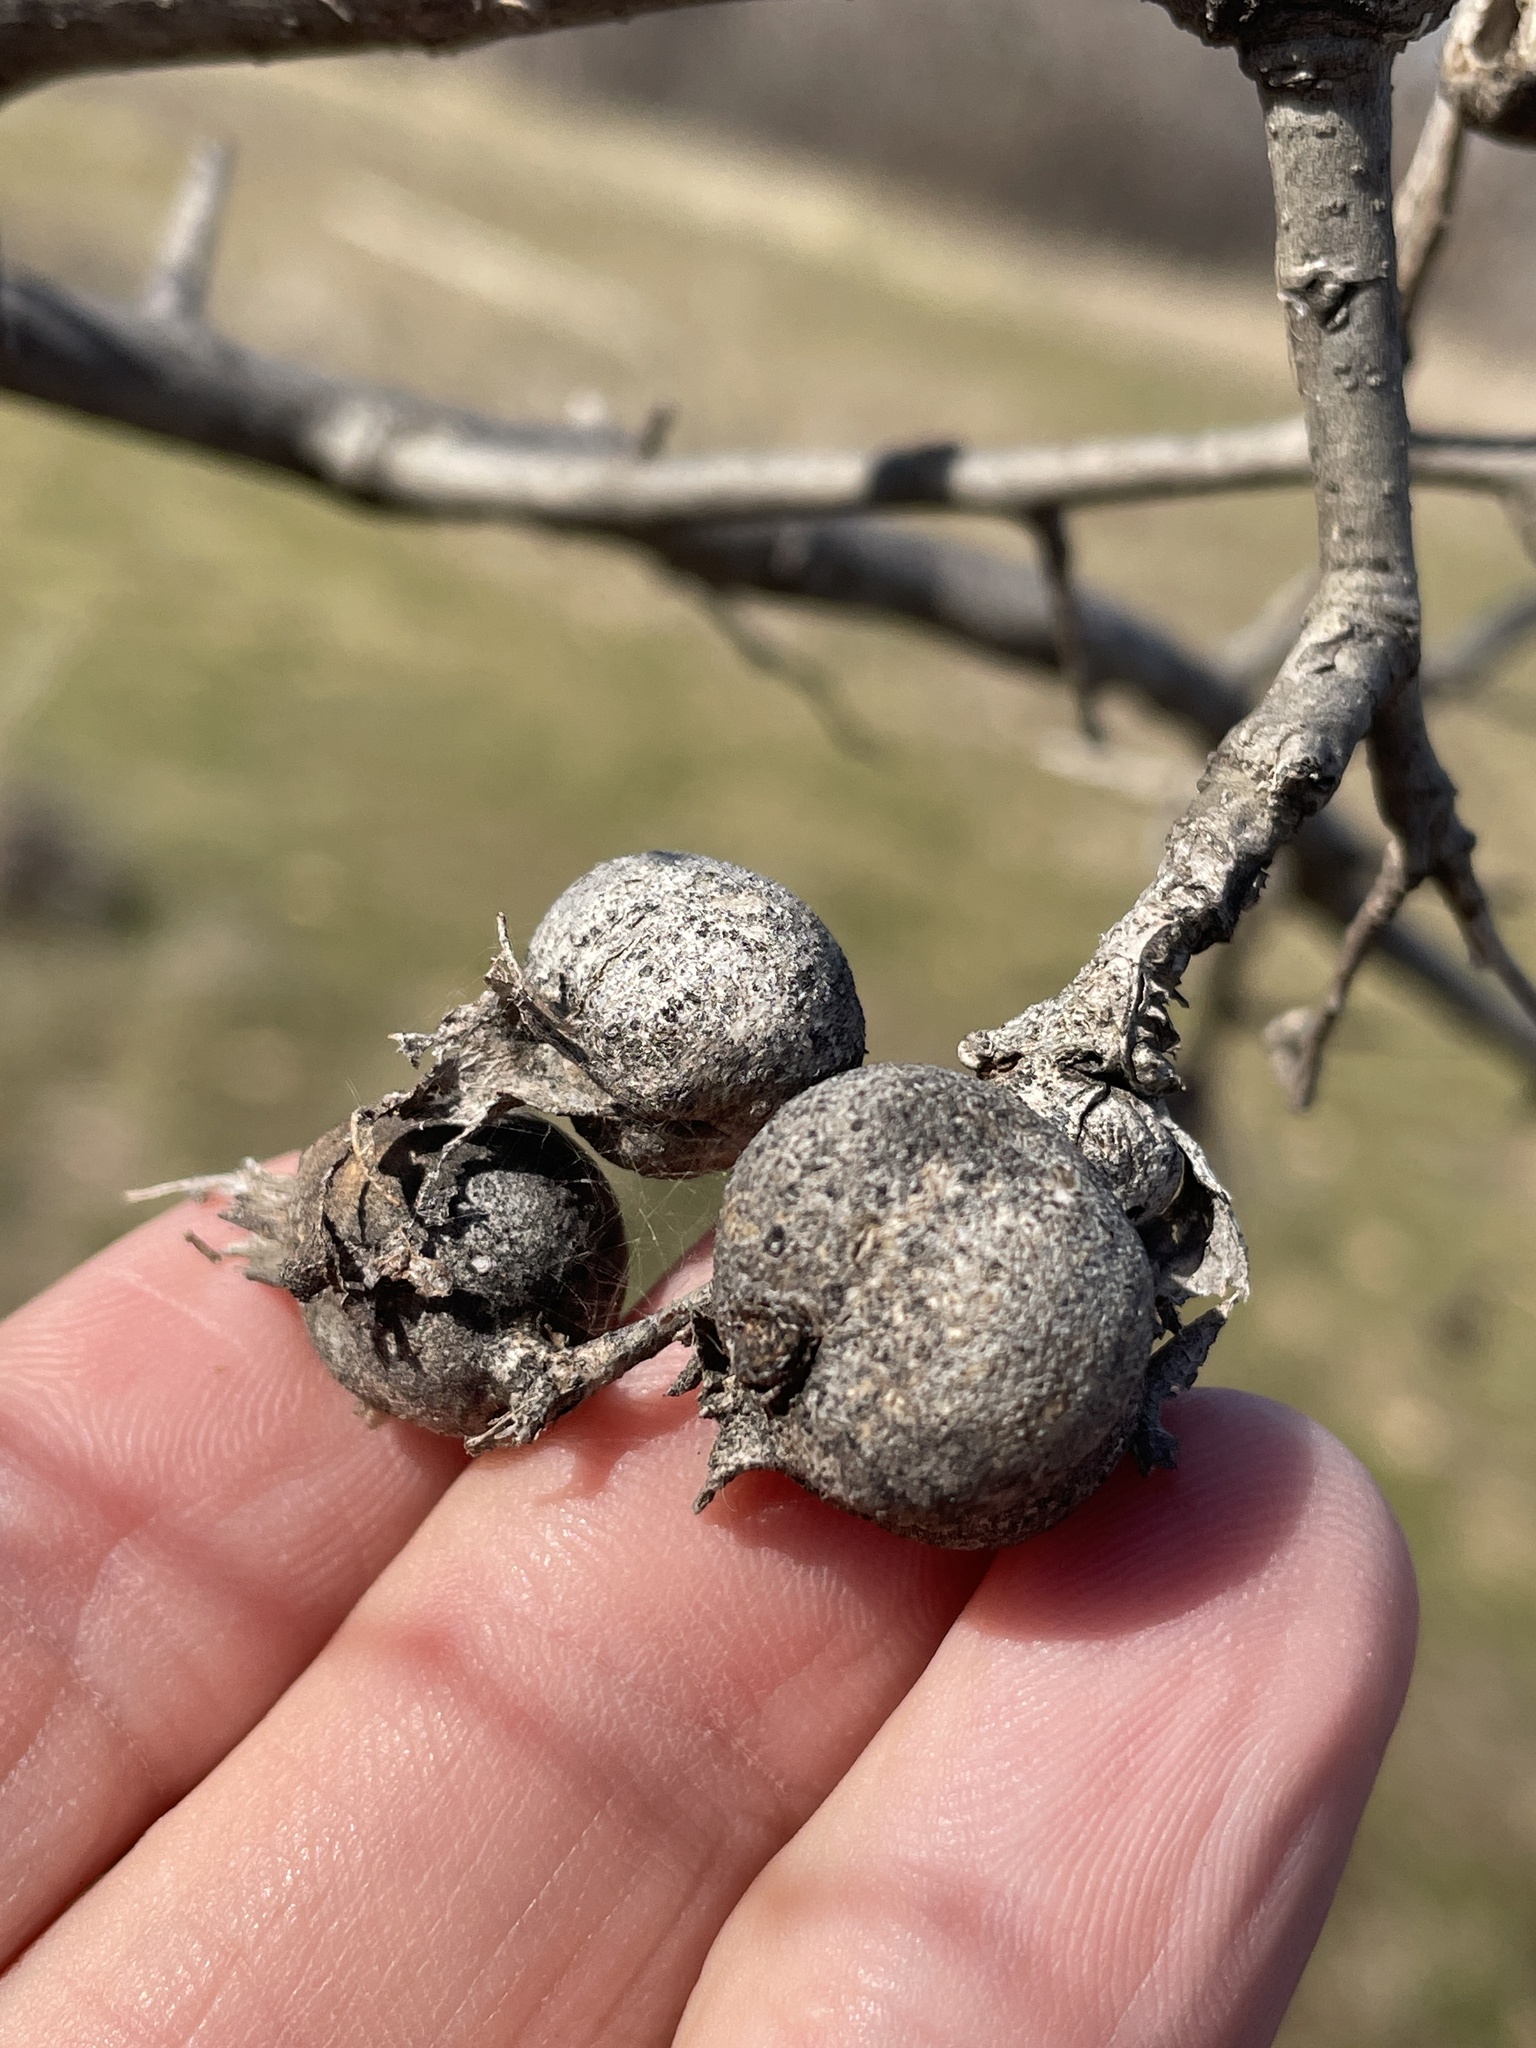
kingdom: Animalia
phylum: Arthropoda
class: Insecta
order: Hemiptera
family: Aphalaridae
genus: Pachypsylla
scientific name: Pachypsylla venusta
